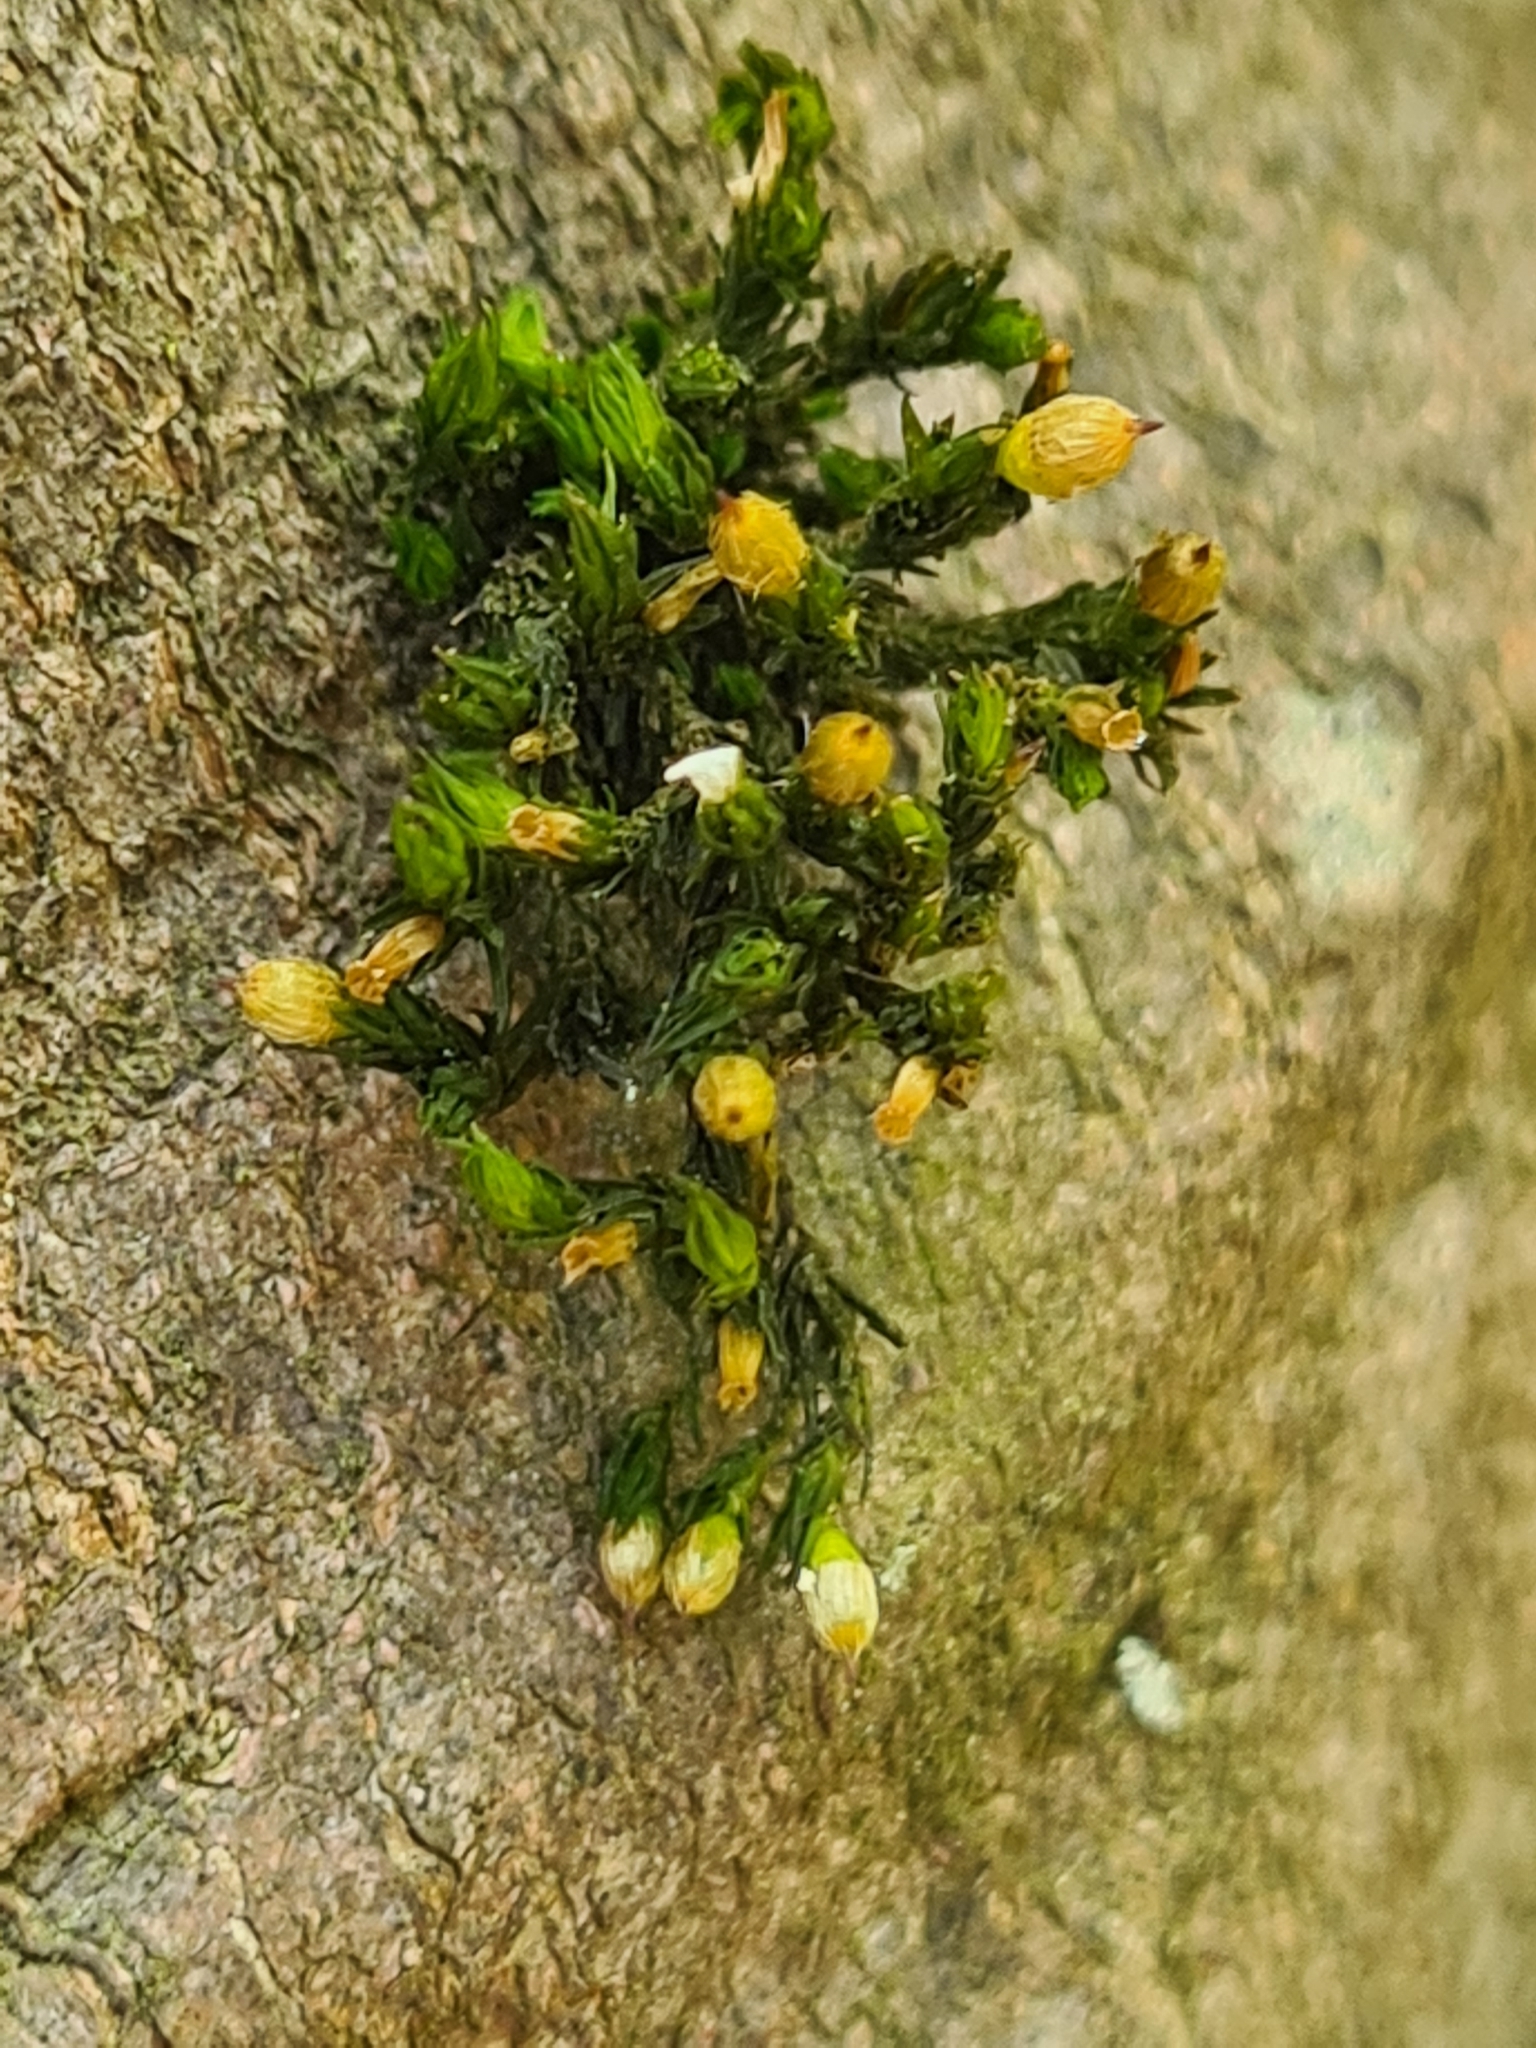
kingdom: Plantae
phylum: Bryophyta
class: Bryopsida
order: Orthotrichales
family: Orthotrichaceae
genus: Orthotrichum
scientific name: Orthotrichum patens
